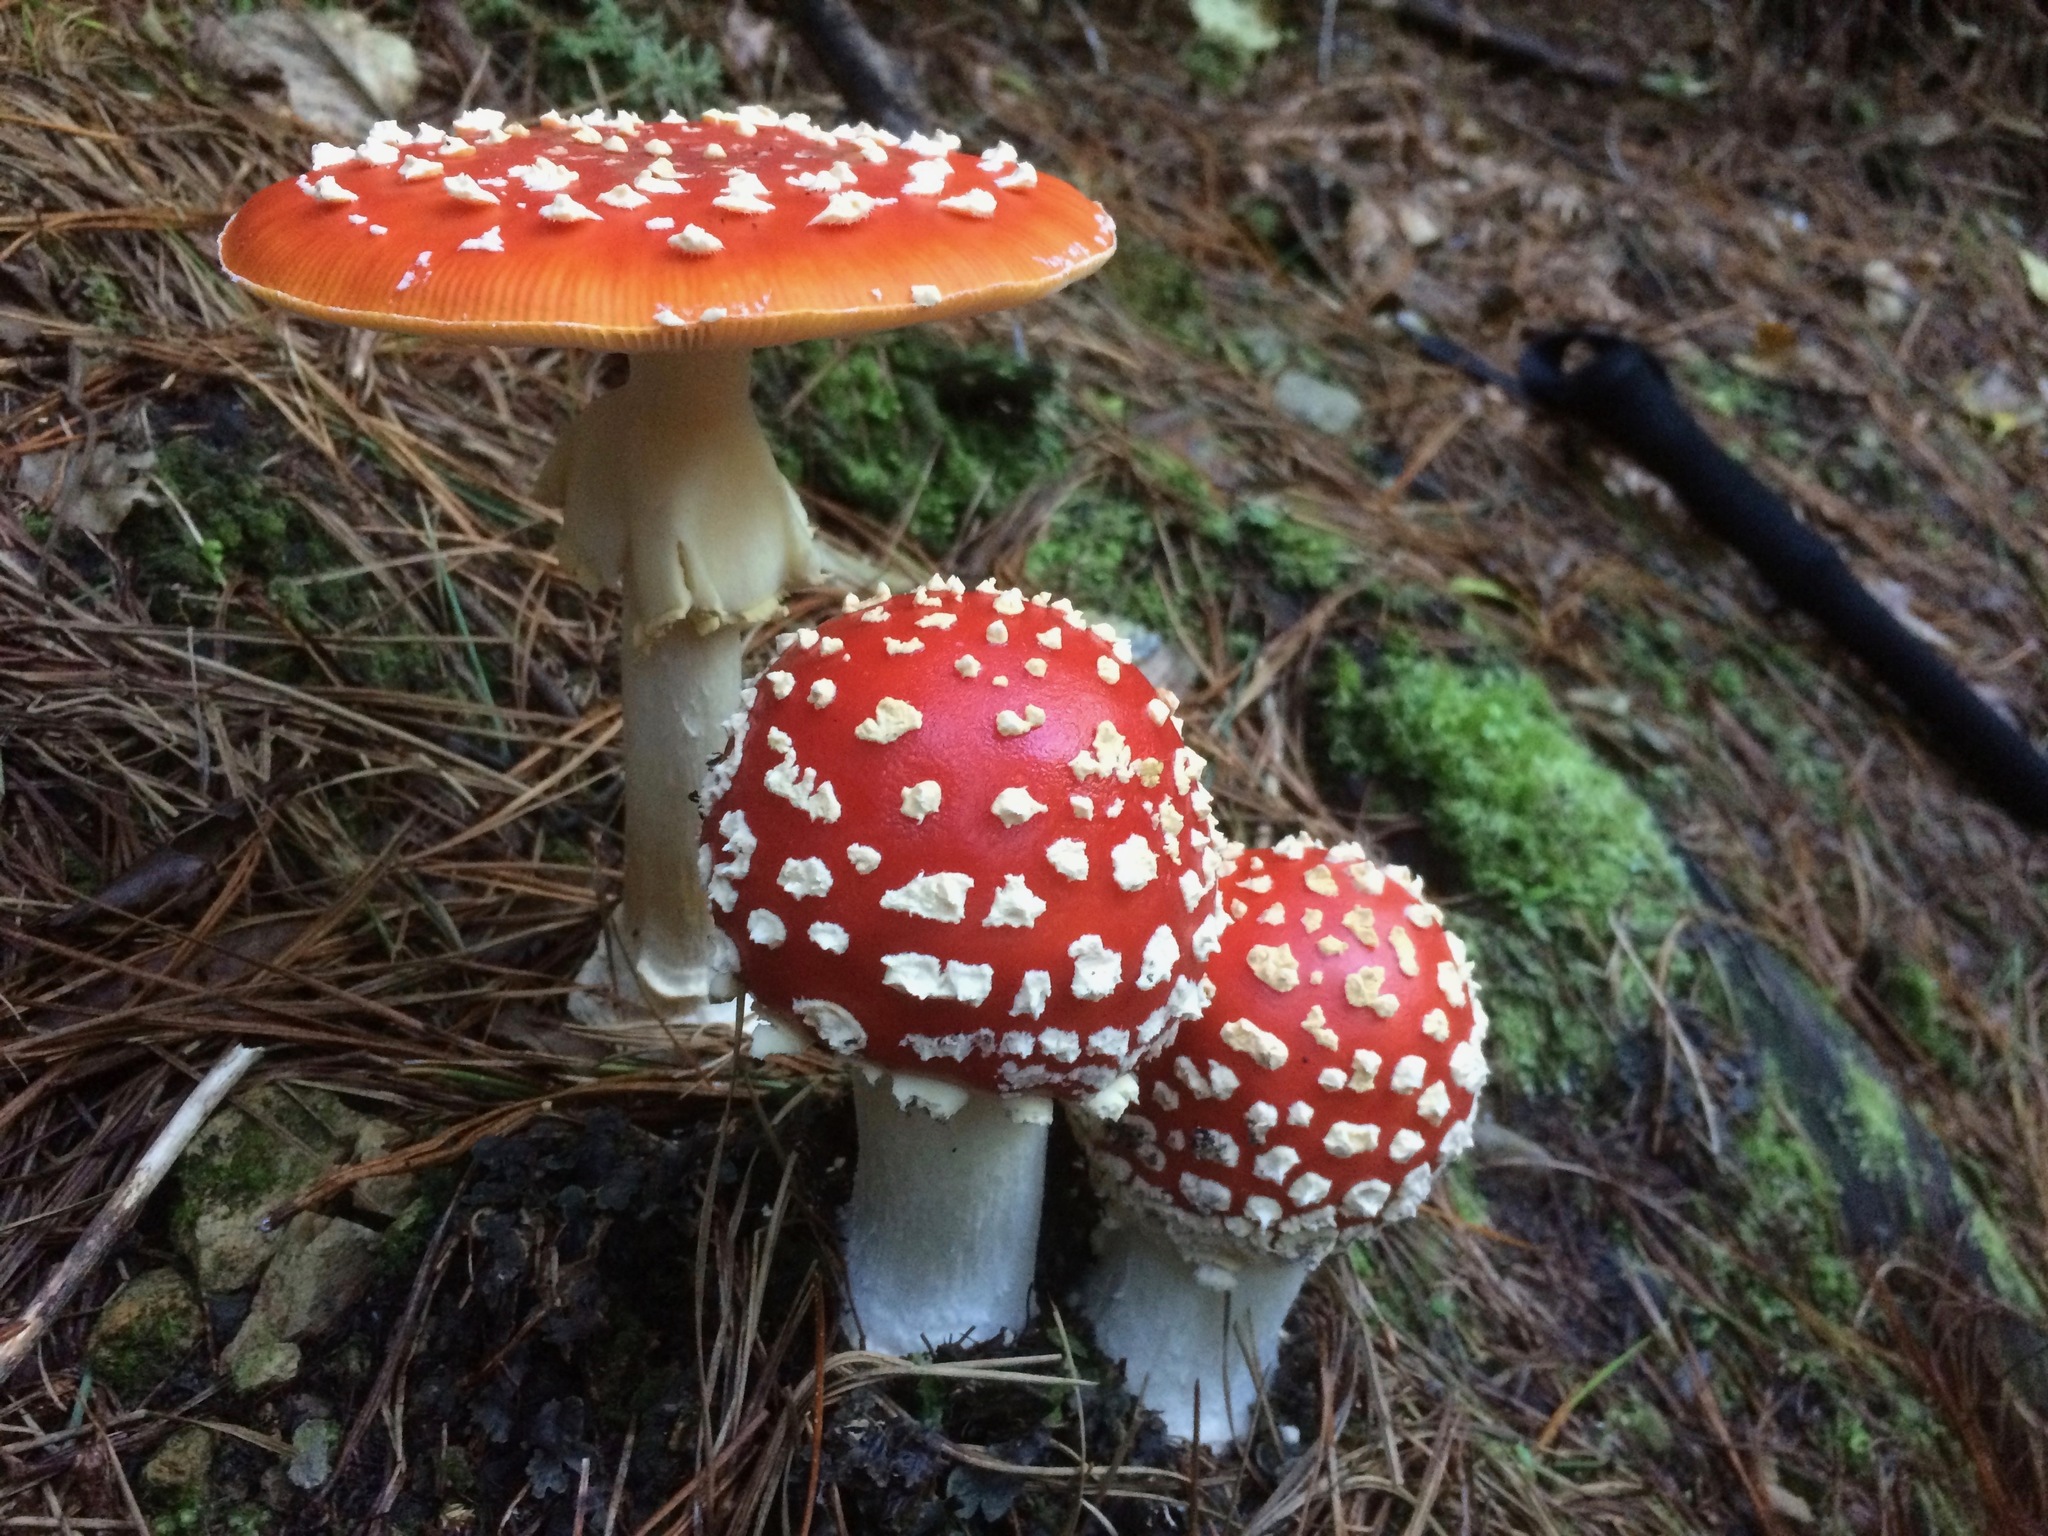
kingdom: Fungi
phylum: Basidiomycota
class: Agaricomycetes
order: Agaricales
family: Amanitaceae
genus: Amanita
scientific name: Amanita muscaria
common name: Fly agaric
